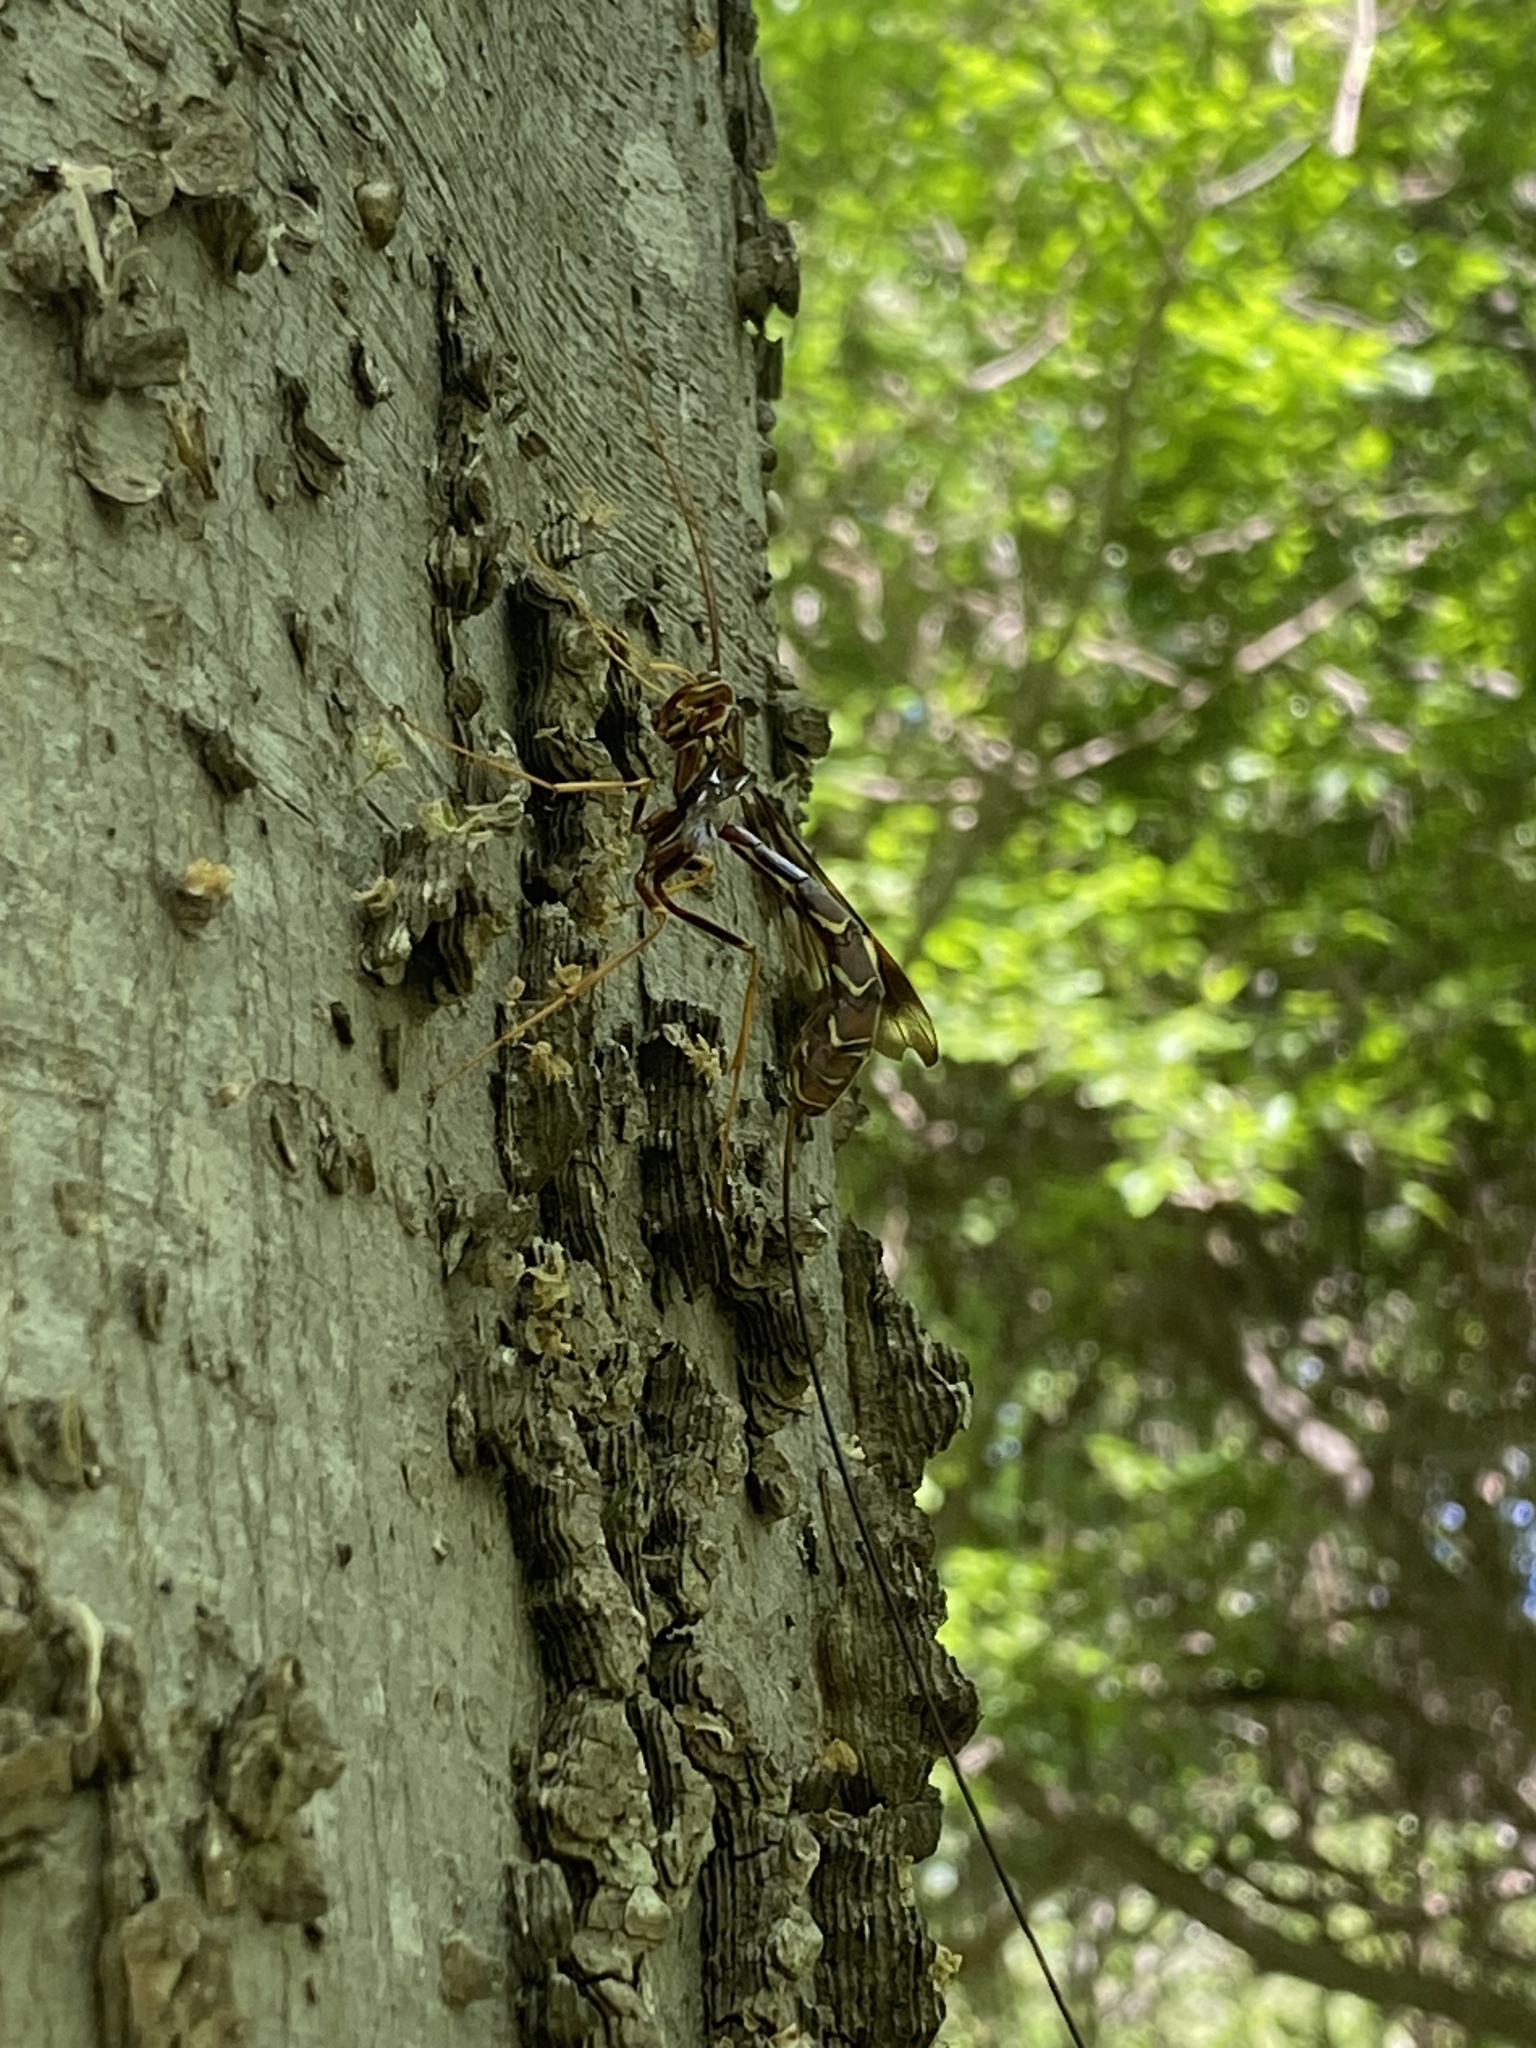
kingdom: Animalia
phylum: Arthropoda
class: Insecta
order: Hymenoptera
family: Ichneumonidae
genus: Megarhyssa
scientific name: Megarhyssa macrura
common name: Long-tailed giant ichneumonid wasp
